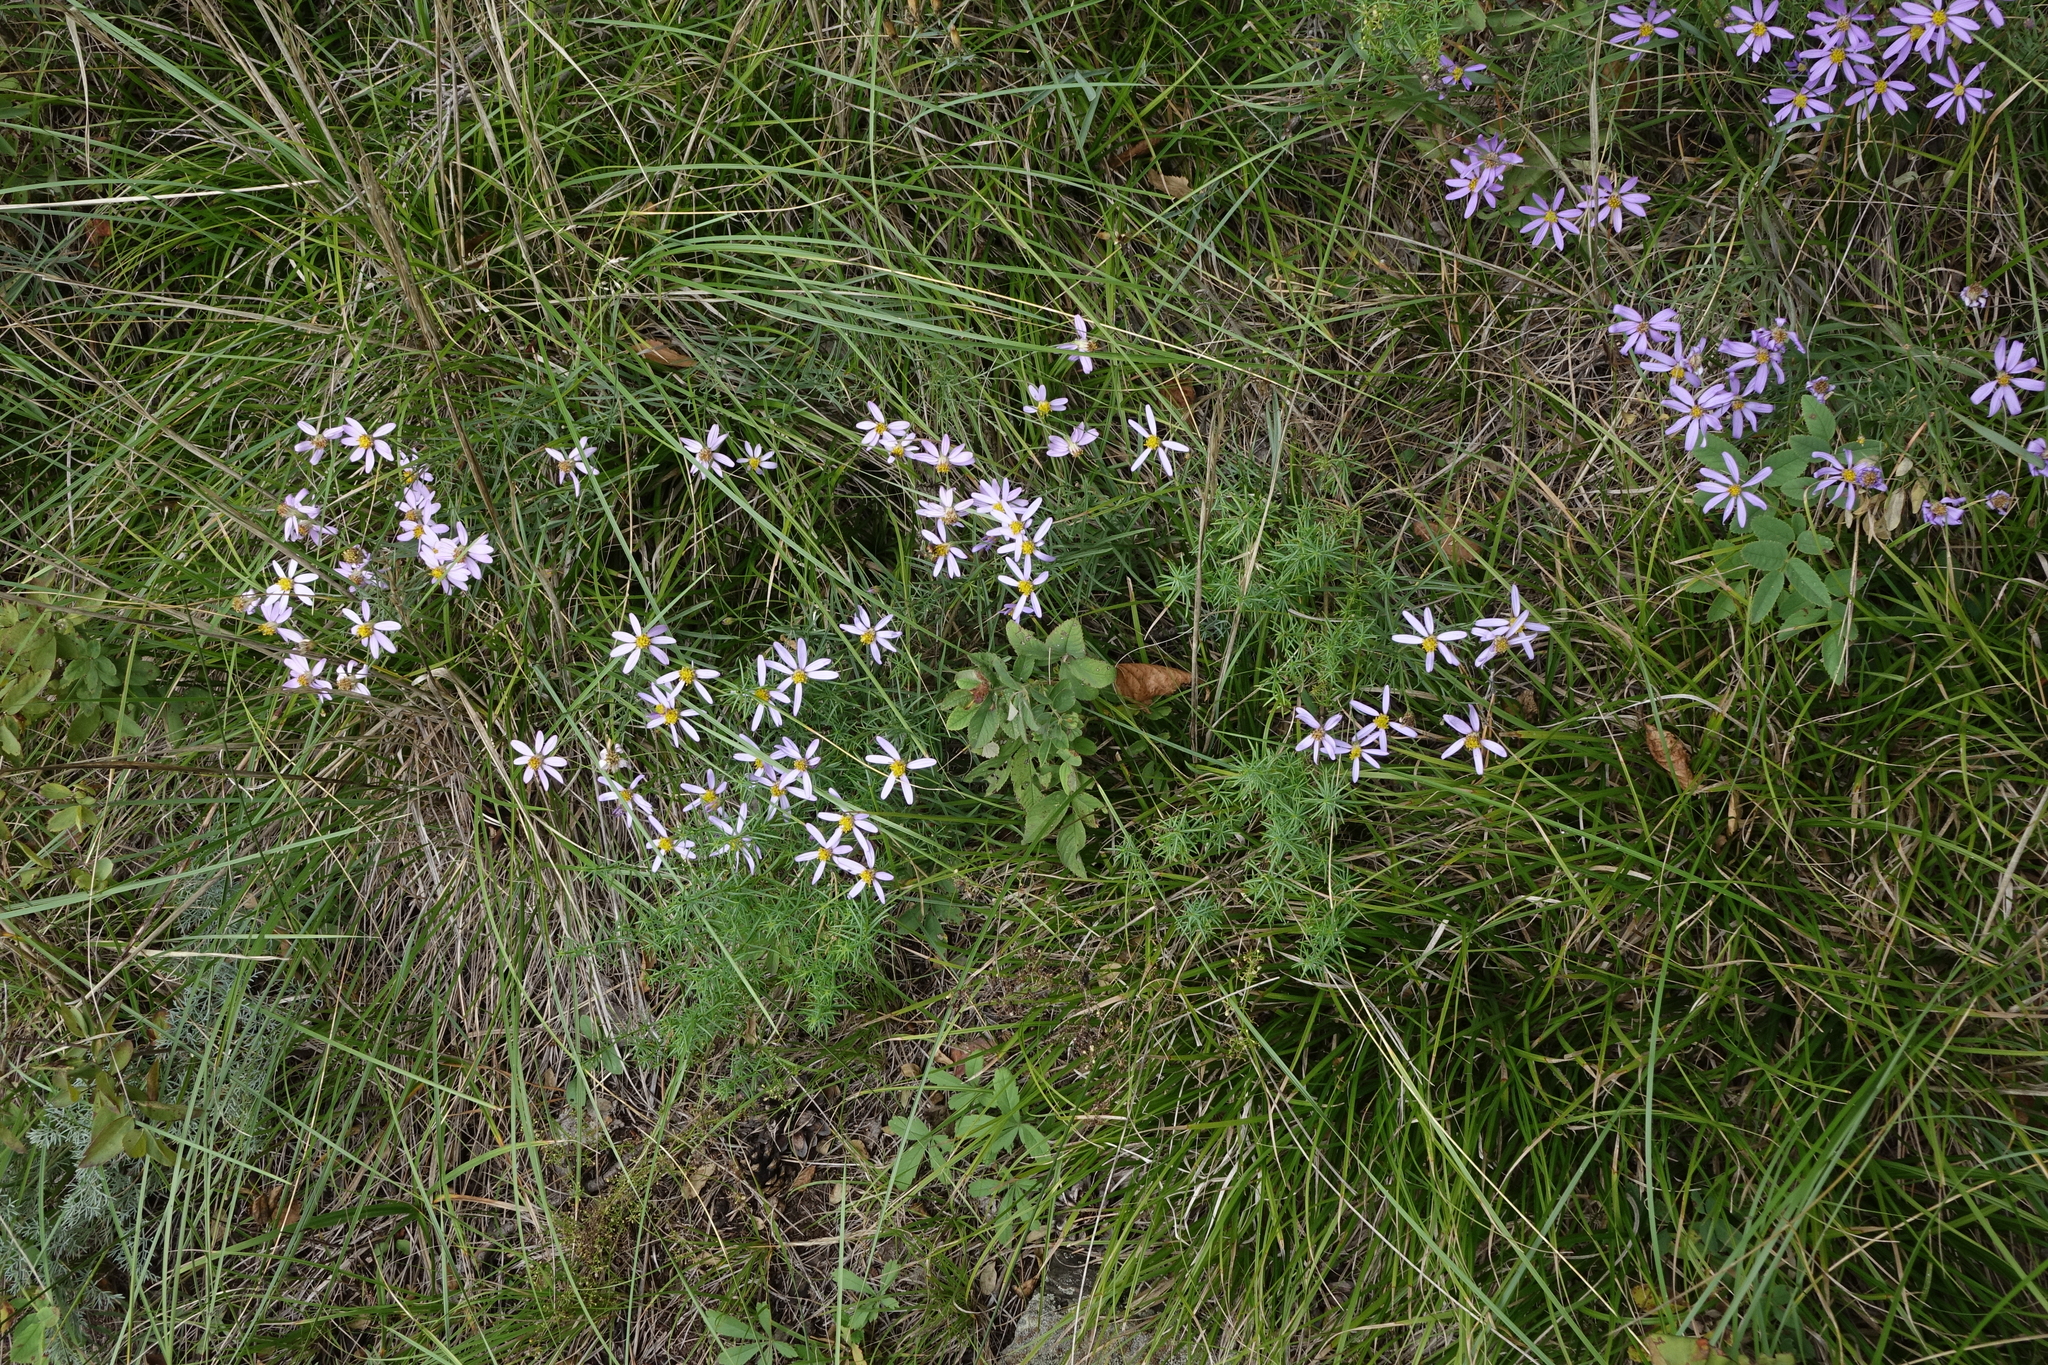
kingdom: Plantae
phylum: Tracheophyta
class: Magnoliopsida
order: Asterales
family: Asteraceae
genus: Galatella
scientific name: Galatella angustissima
